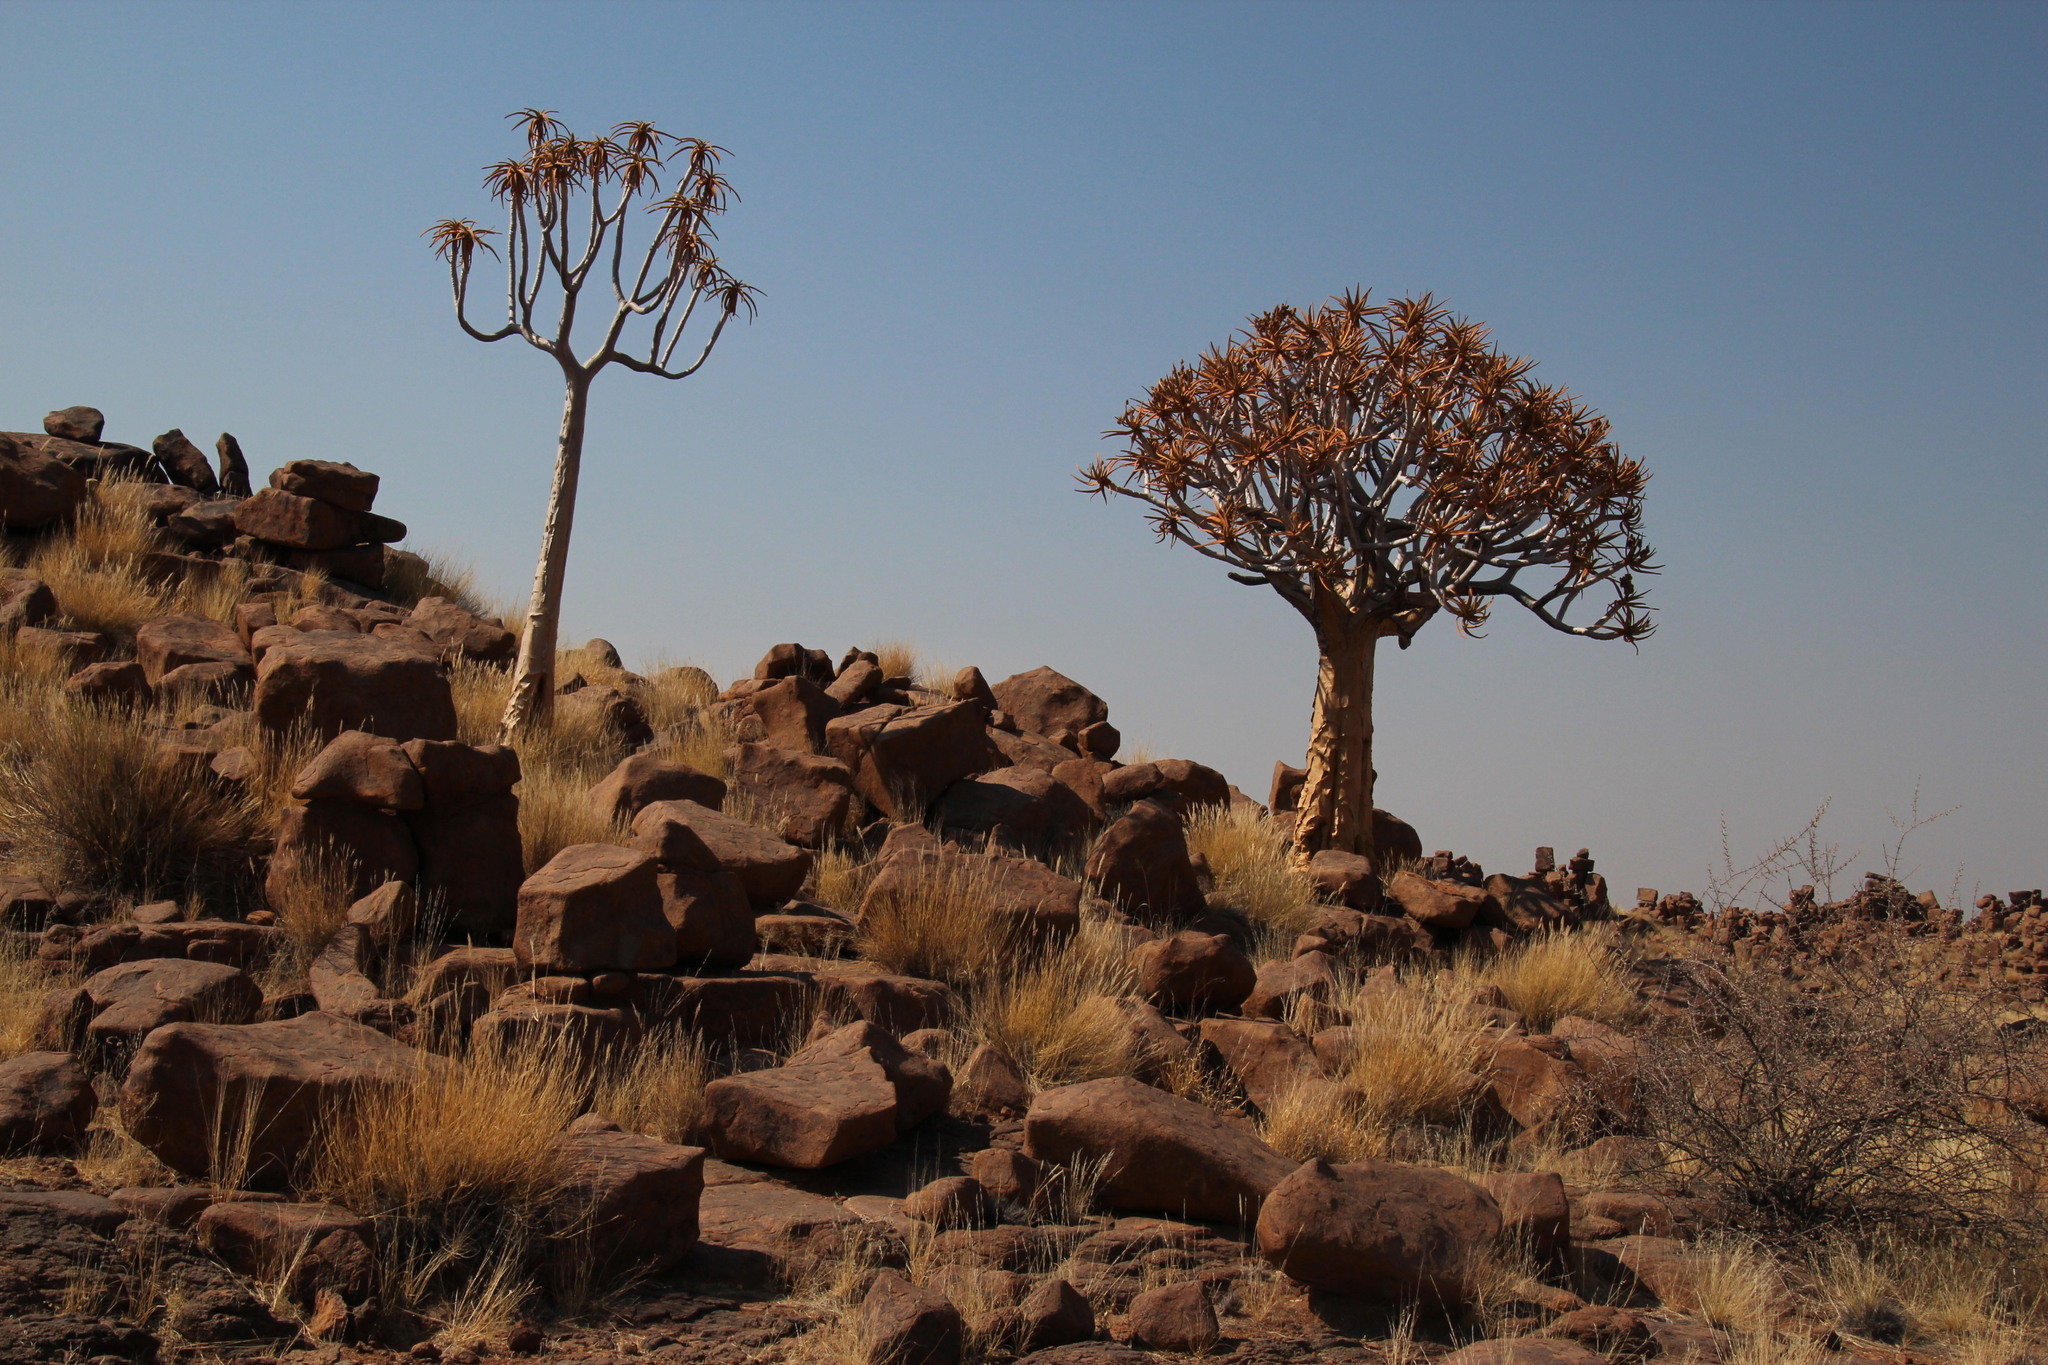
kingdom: Plantae
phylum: Tracheophyta
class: Liliopsida
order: Asparagales
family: Asphodelaceae
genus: Aloidendron
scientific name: Aloidendron dichotomum
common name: Quiver tree
